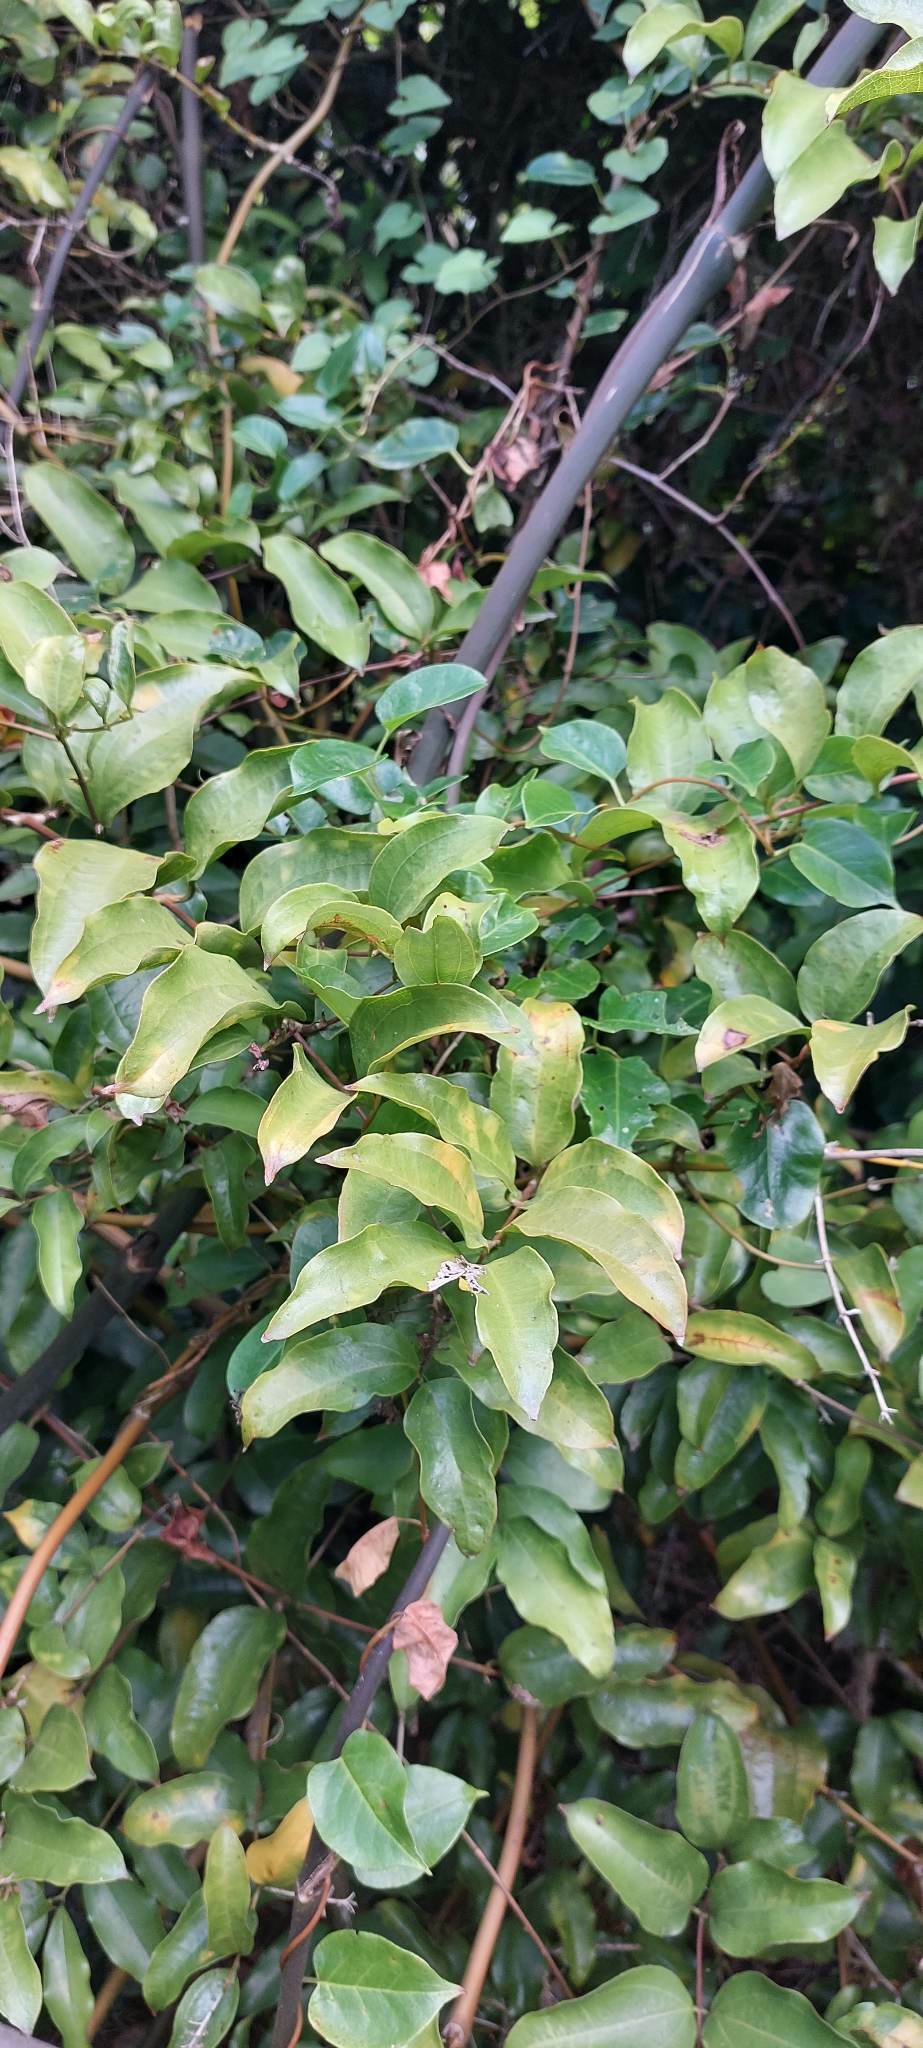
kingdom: Plantae
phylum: Tracheophyta
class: Liliopsida
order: Liliales
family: Ripogonaceae
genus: Ripogonum
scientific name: Ripogonum scandens
